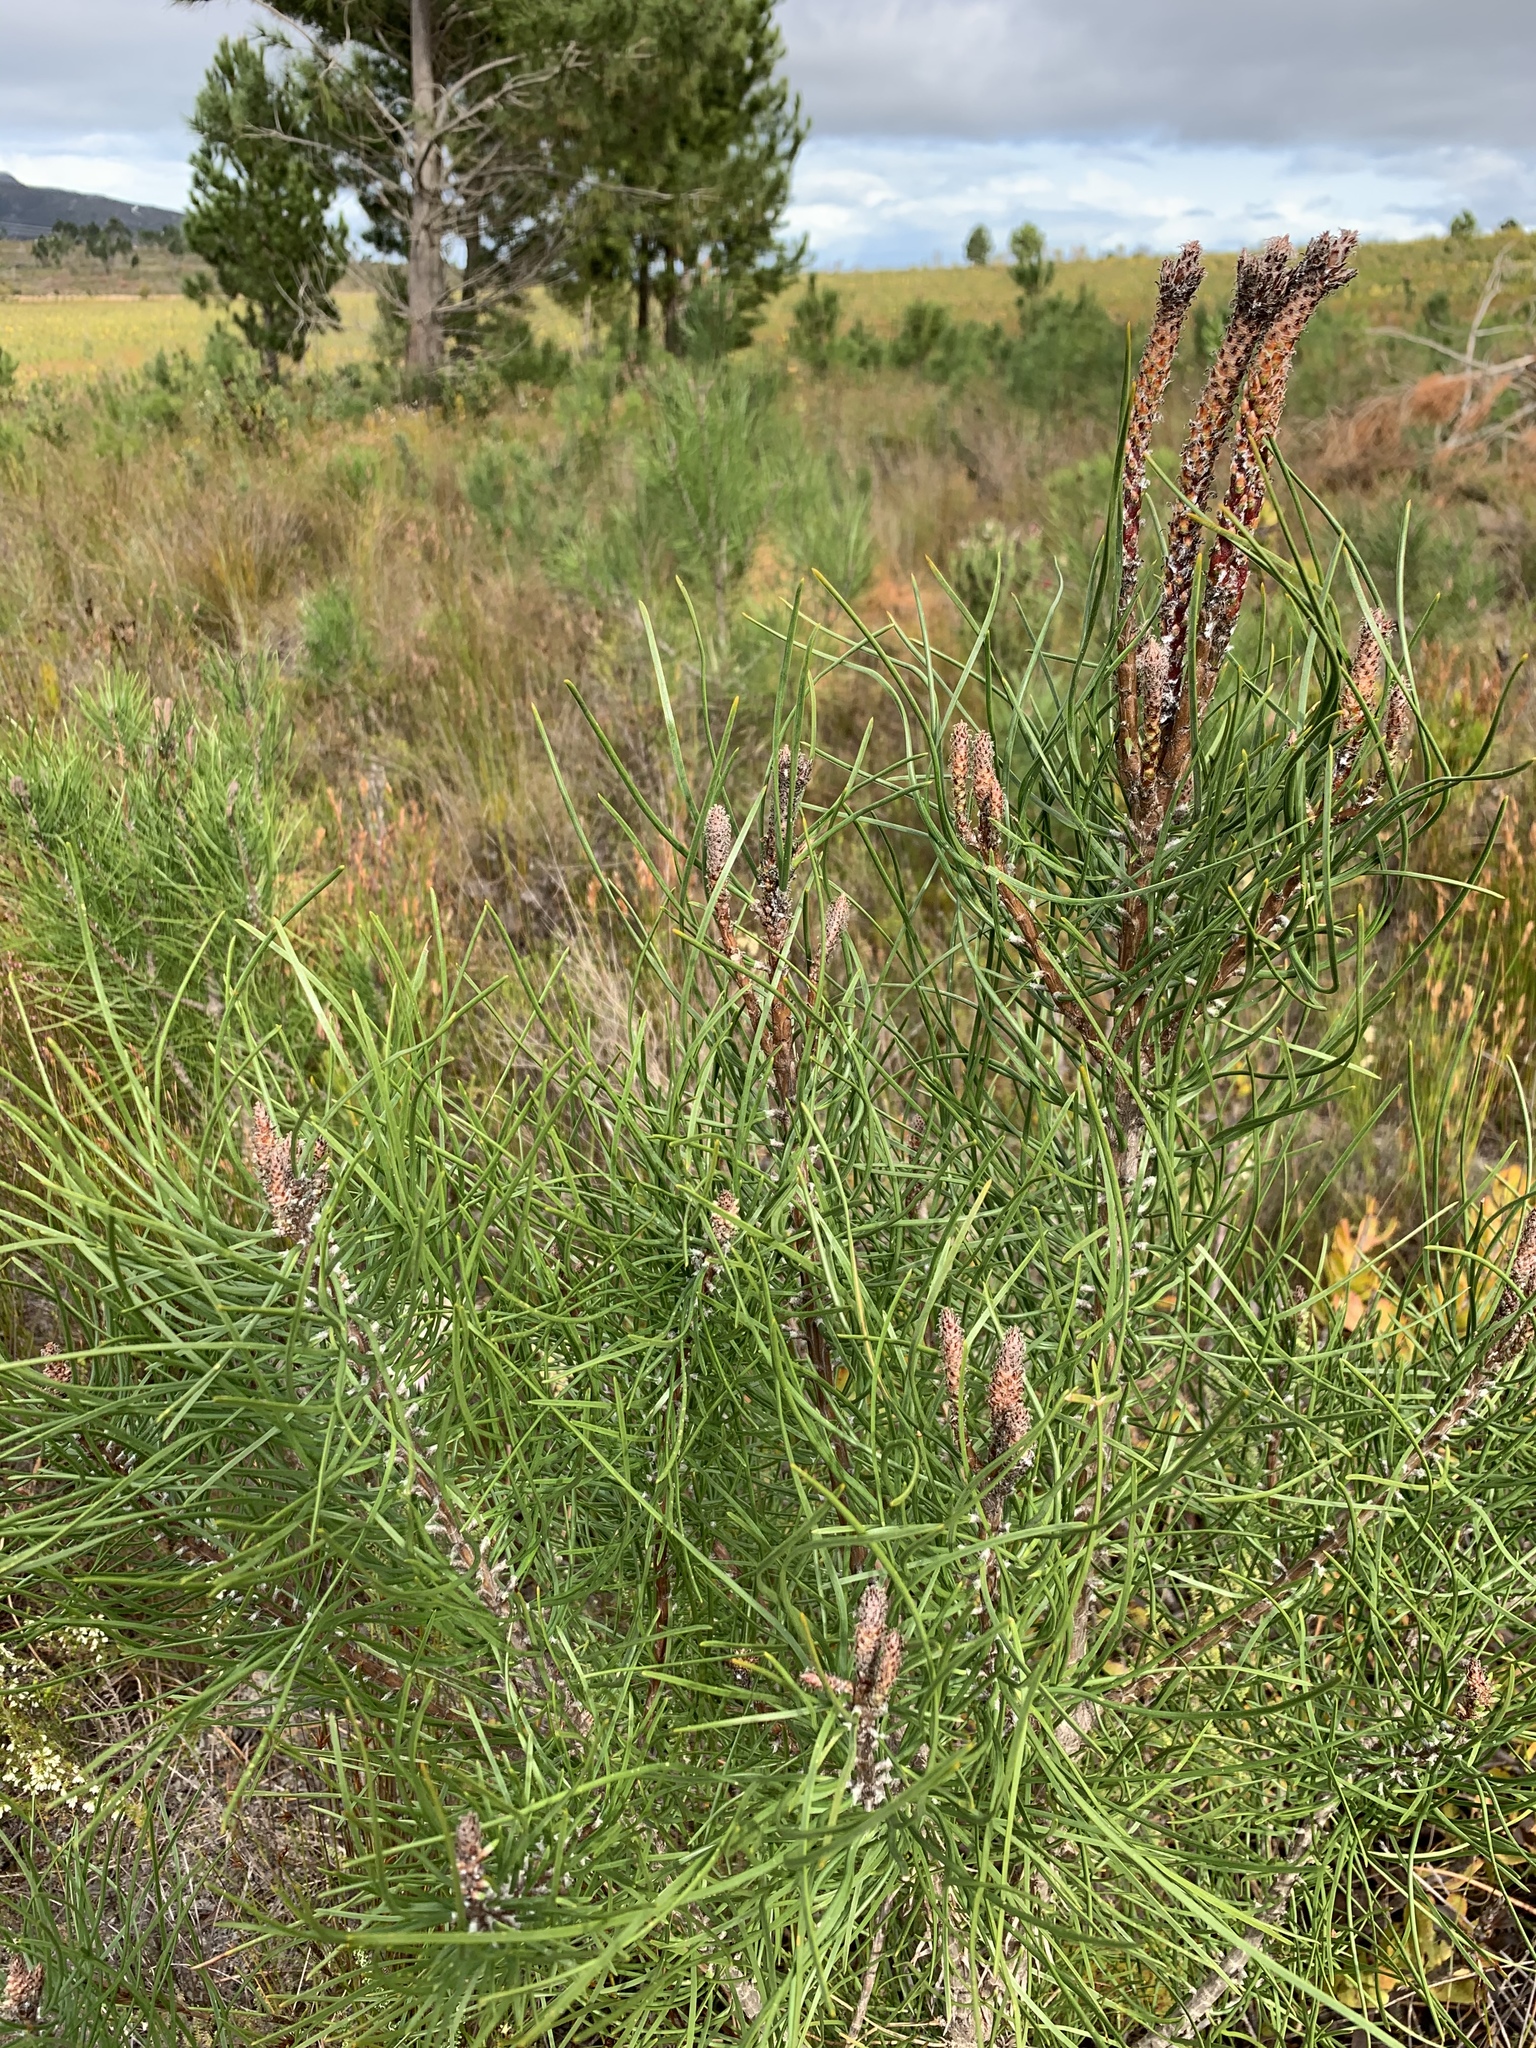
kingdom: Plantae
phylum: Tracheophyta
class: Pinopsida
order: Pinales
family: Pinaceae
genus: Pinus
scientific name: Pinus pinaster
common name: Maritime pine
